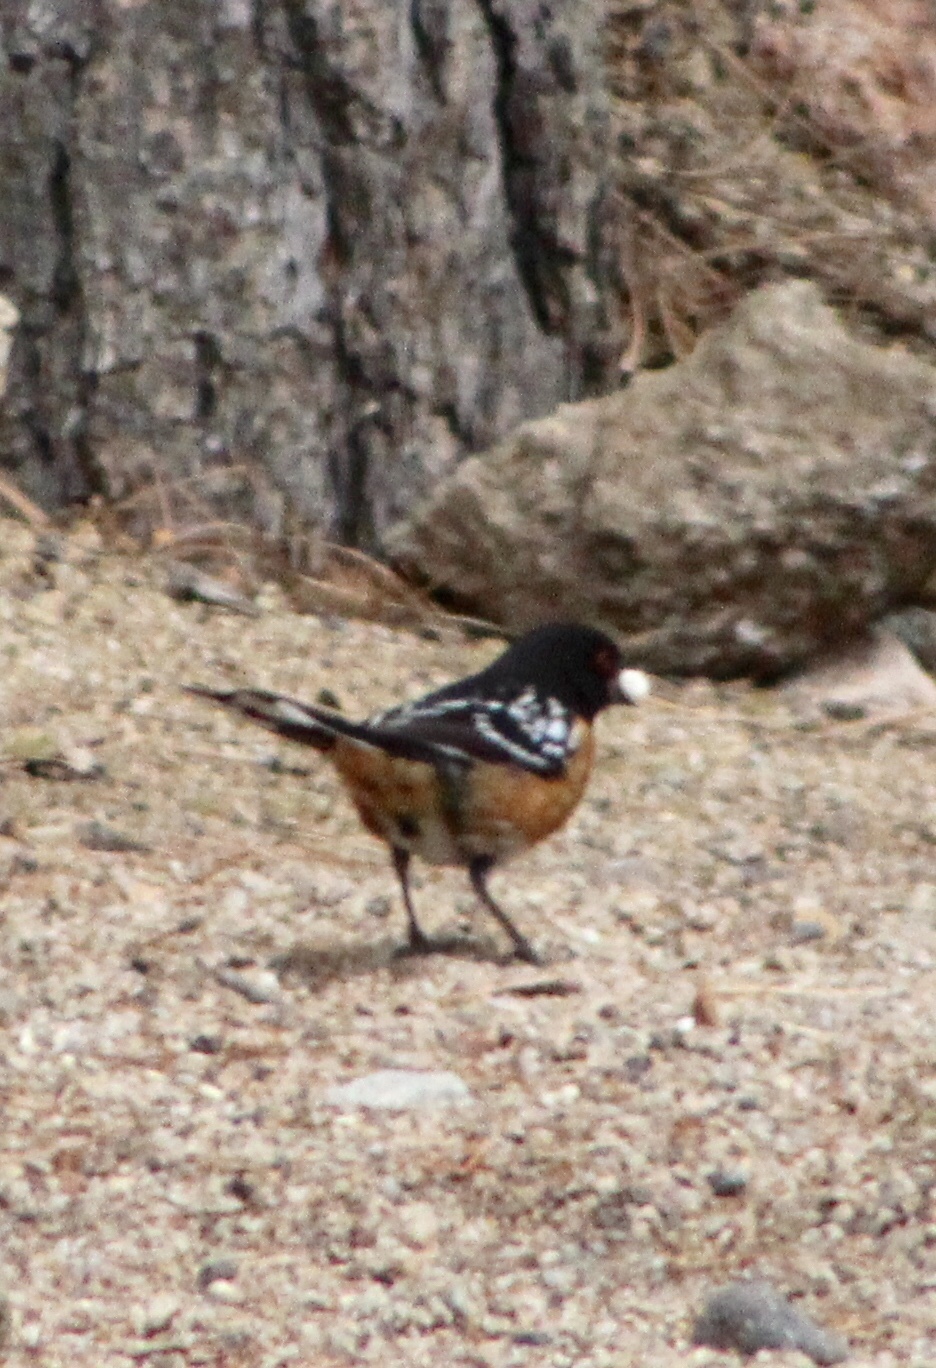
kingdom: Animalia
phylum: Chordata
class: Aves
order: Passeriformes
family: Passerellidae
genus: Pipilo
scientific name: Pipilo maculatus
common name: Spotted towhee
